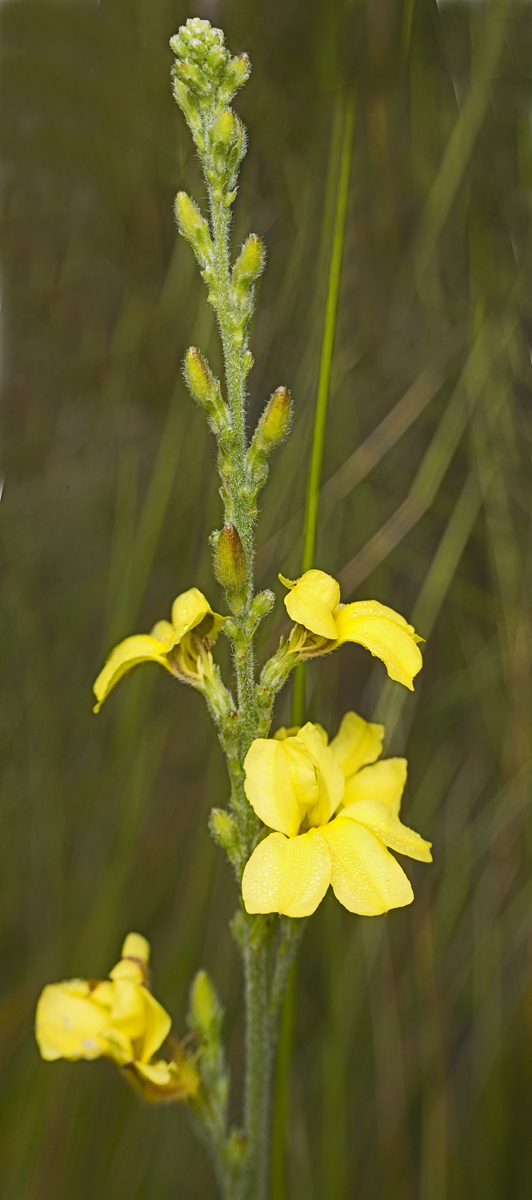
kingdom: Plantae
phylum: Tracheophyta
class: Magnoliopsida
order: Asterales
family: Goodeniaceae
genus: Goodenia
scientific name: Goodenia bellidifolia
